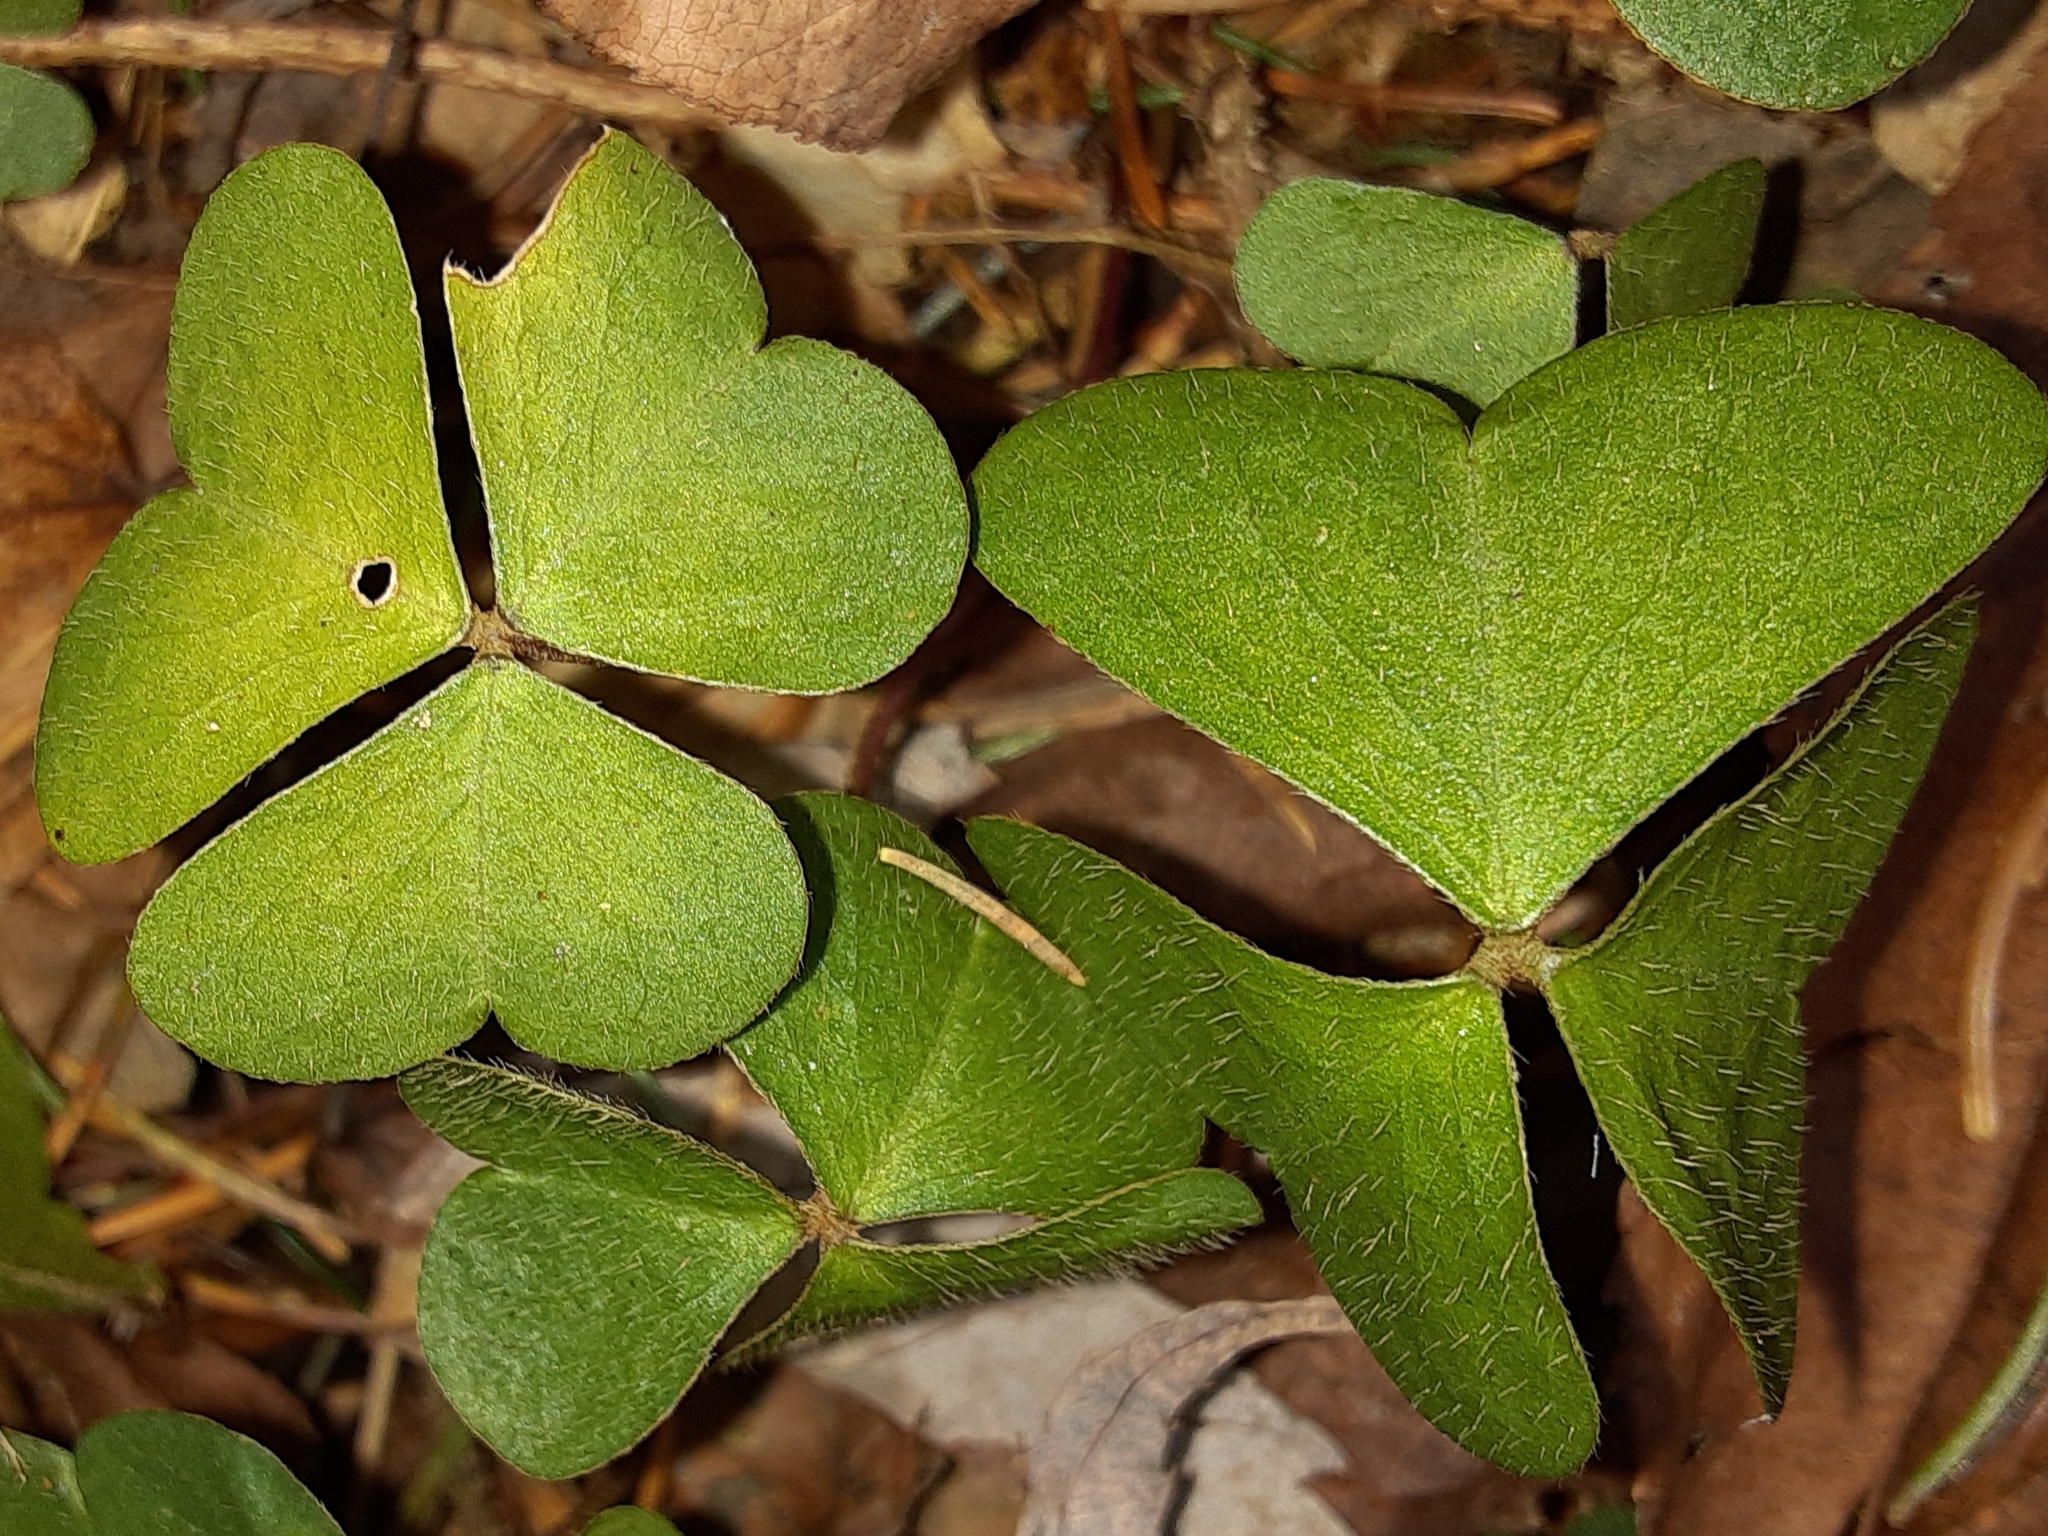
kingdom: Plantae
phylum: Tracheophyta
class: Magnoliopsida
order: Oxalidales
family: Oxalidaceae
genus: Oxalis
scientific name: Oxalis montana
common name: American wood-sorrel
